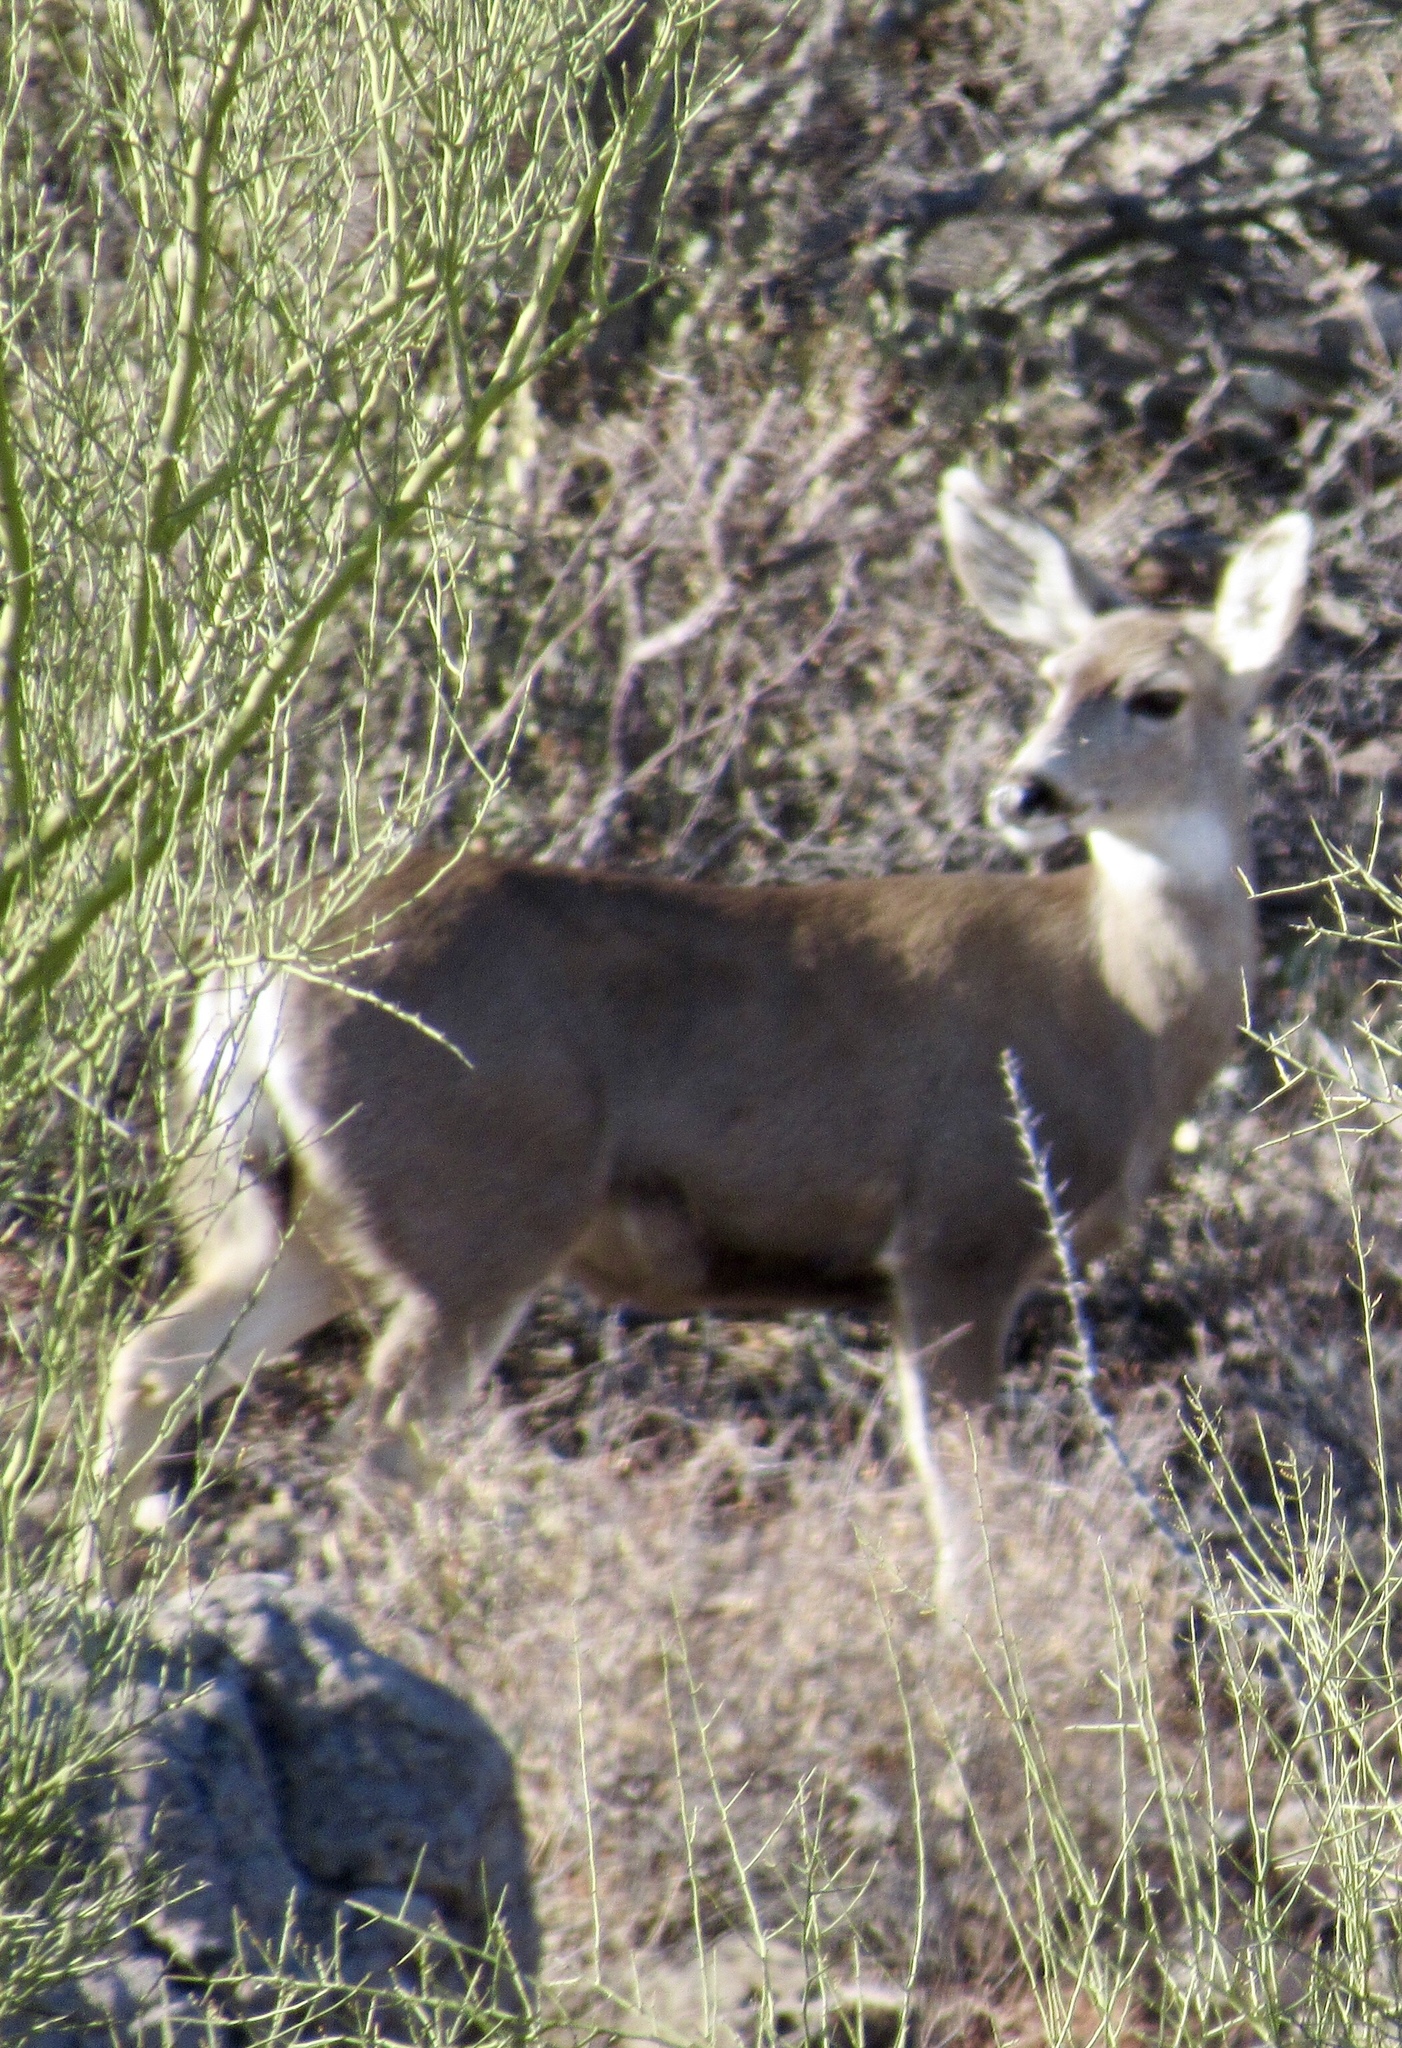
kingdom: Animalia
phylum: Chordata
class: Mammalia
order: Artiodactyla
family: Cervidae
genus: Odocoileus
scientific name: Odocoileus hemionus
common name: Mule deer
